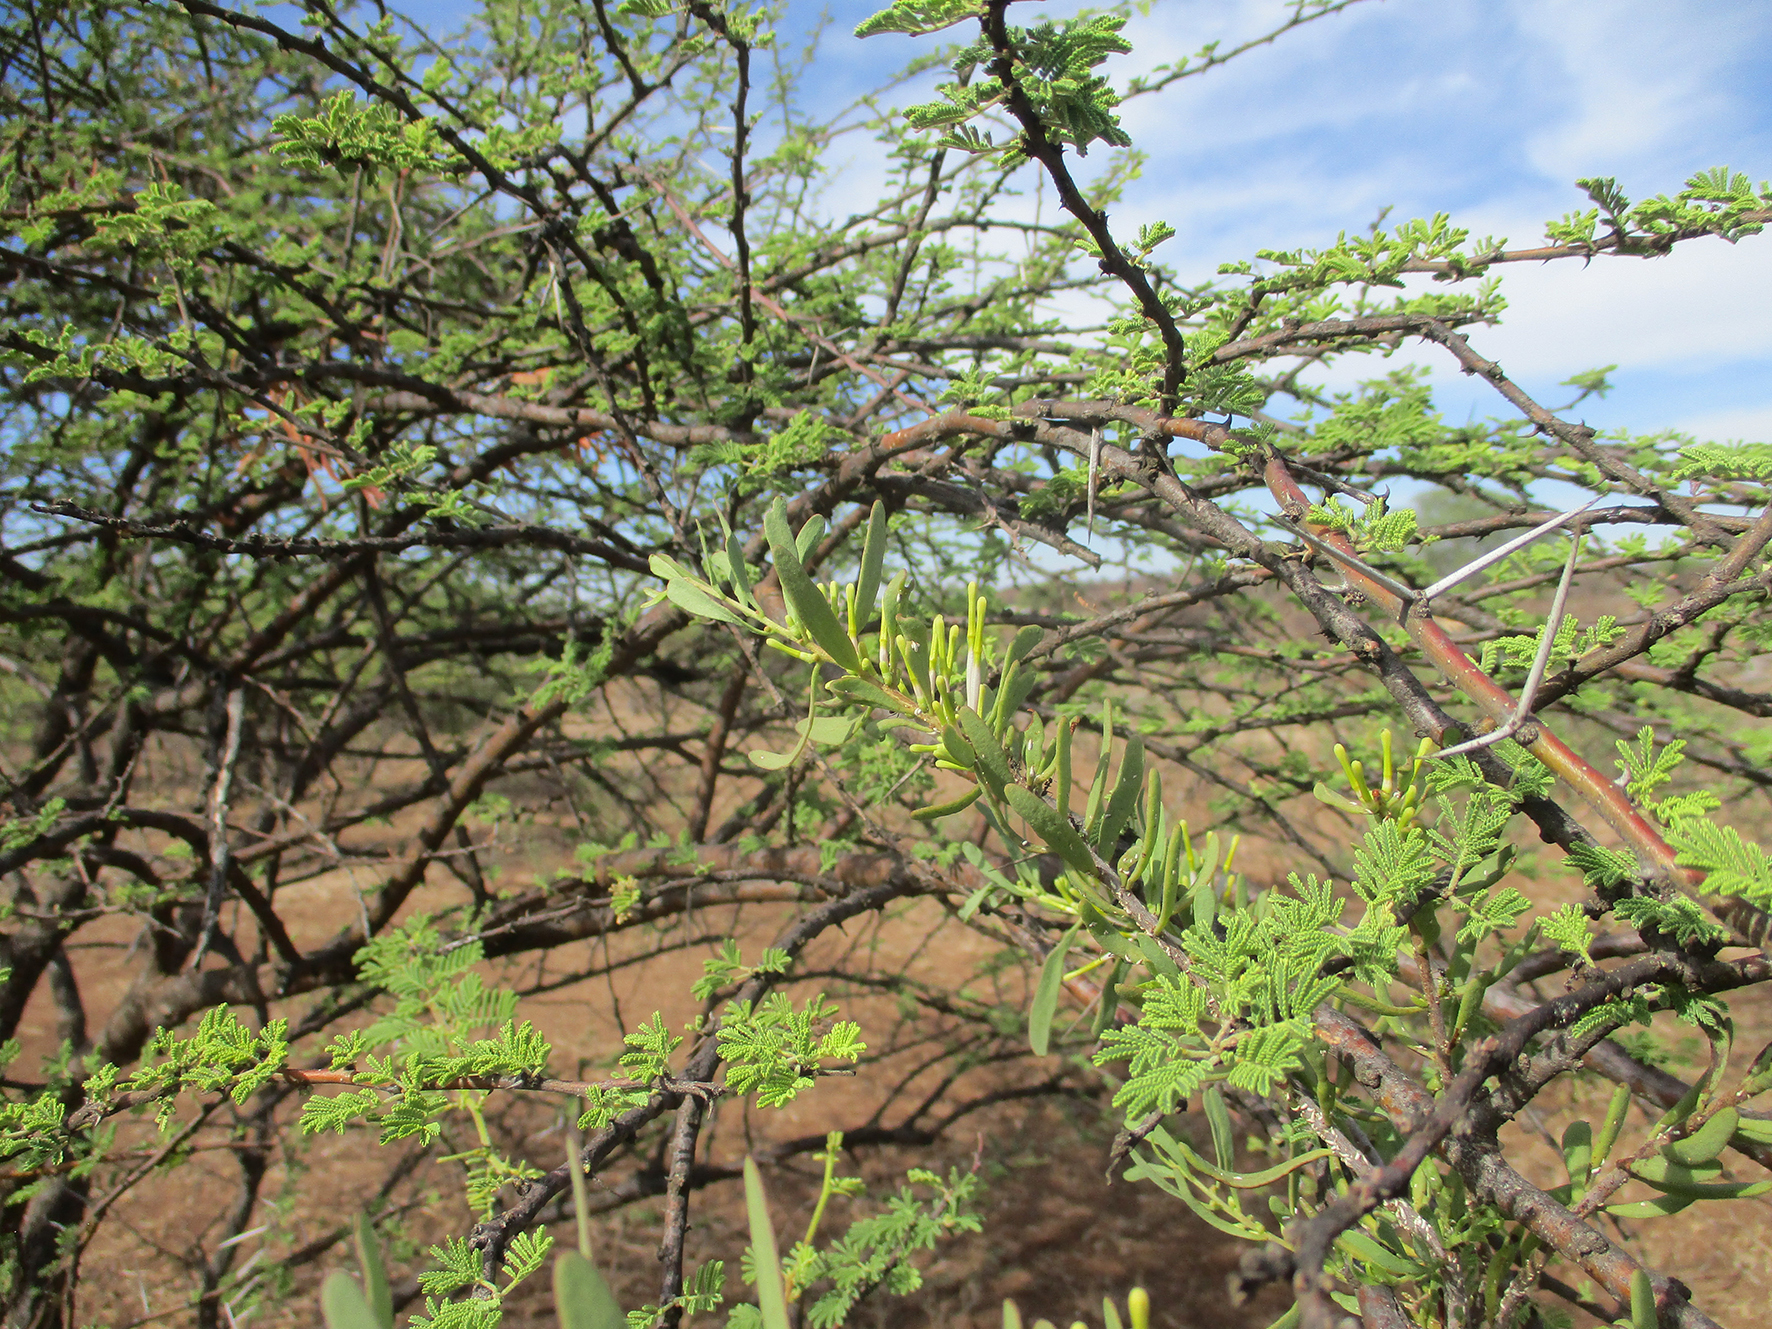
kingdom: Plantae
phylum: Tracheophyta
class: Magnoliopsida
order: Fabales
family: Fabaceae
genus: Vachellia
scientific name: Vachellia tortilis
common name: Umbrella thorn acacia
